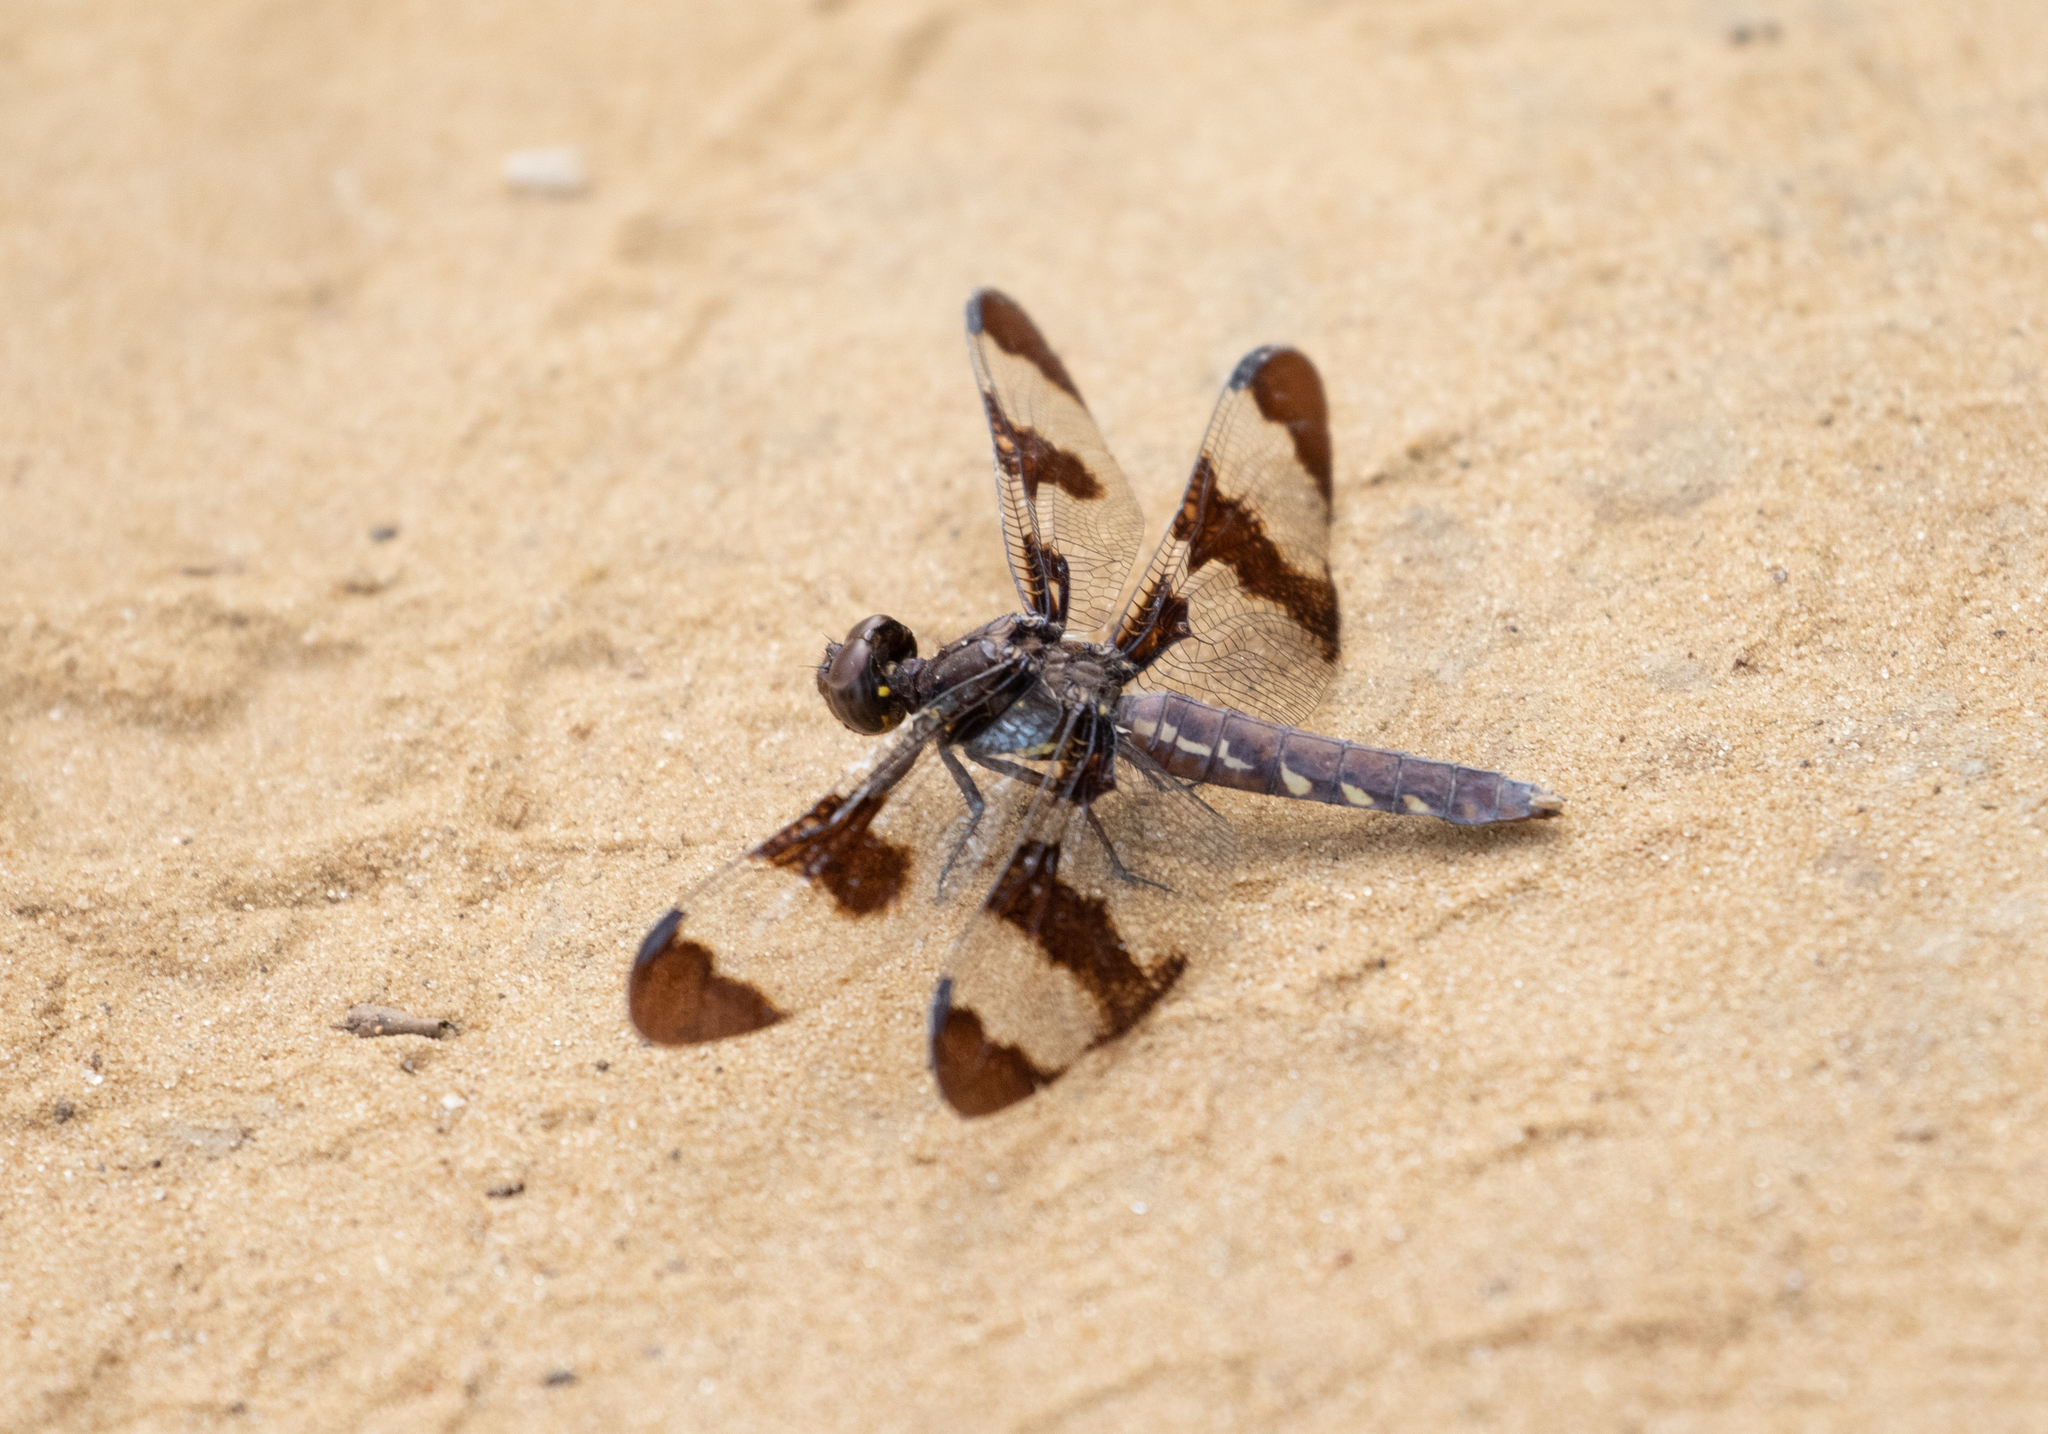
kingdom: Animalia
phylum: Arthropoda
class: Insecta
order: Odonata
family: Libellulidae
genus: Plathemis
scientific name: Plathemis lydia
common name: Common whitetail
